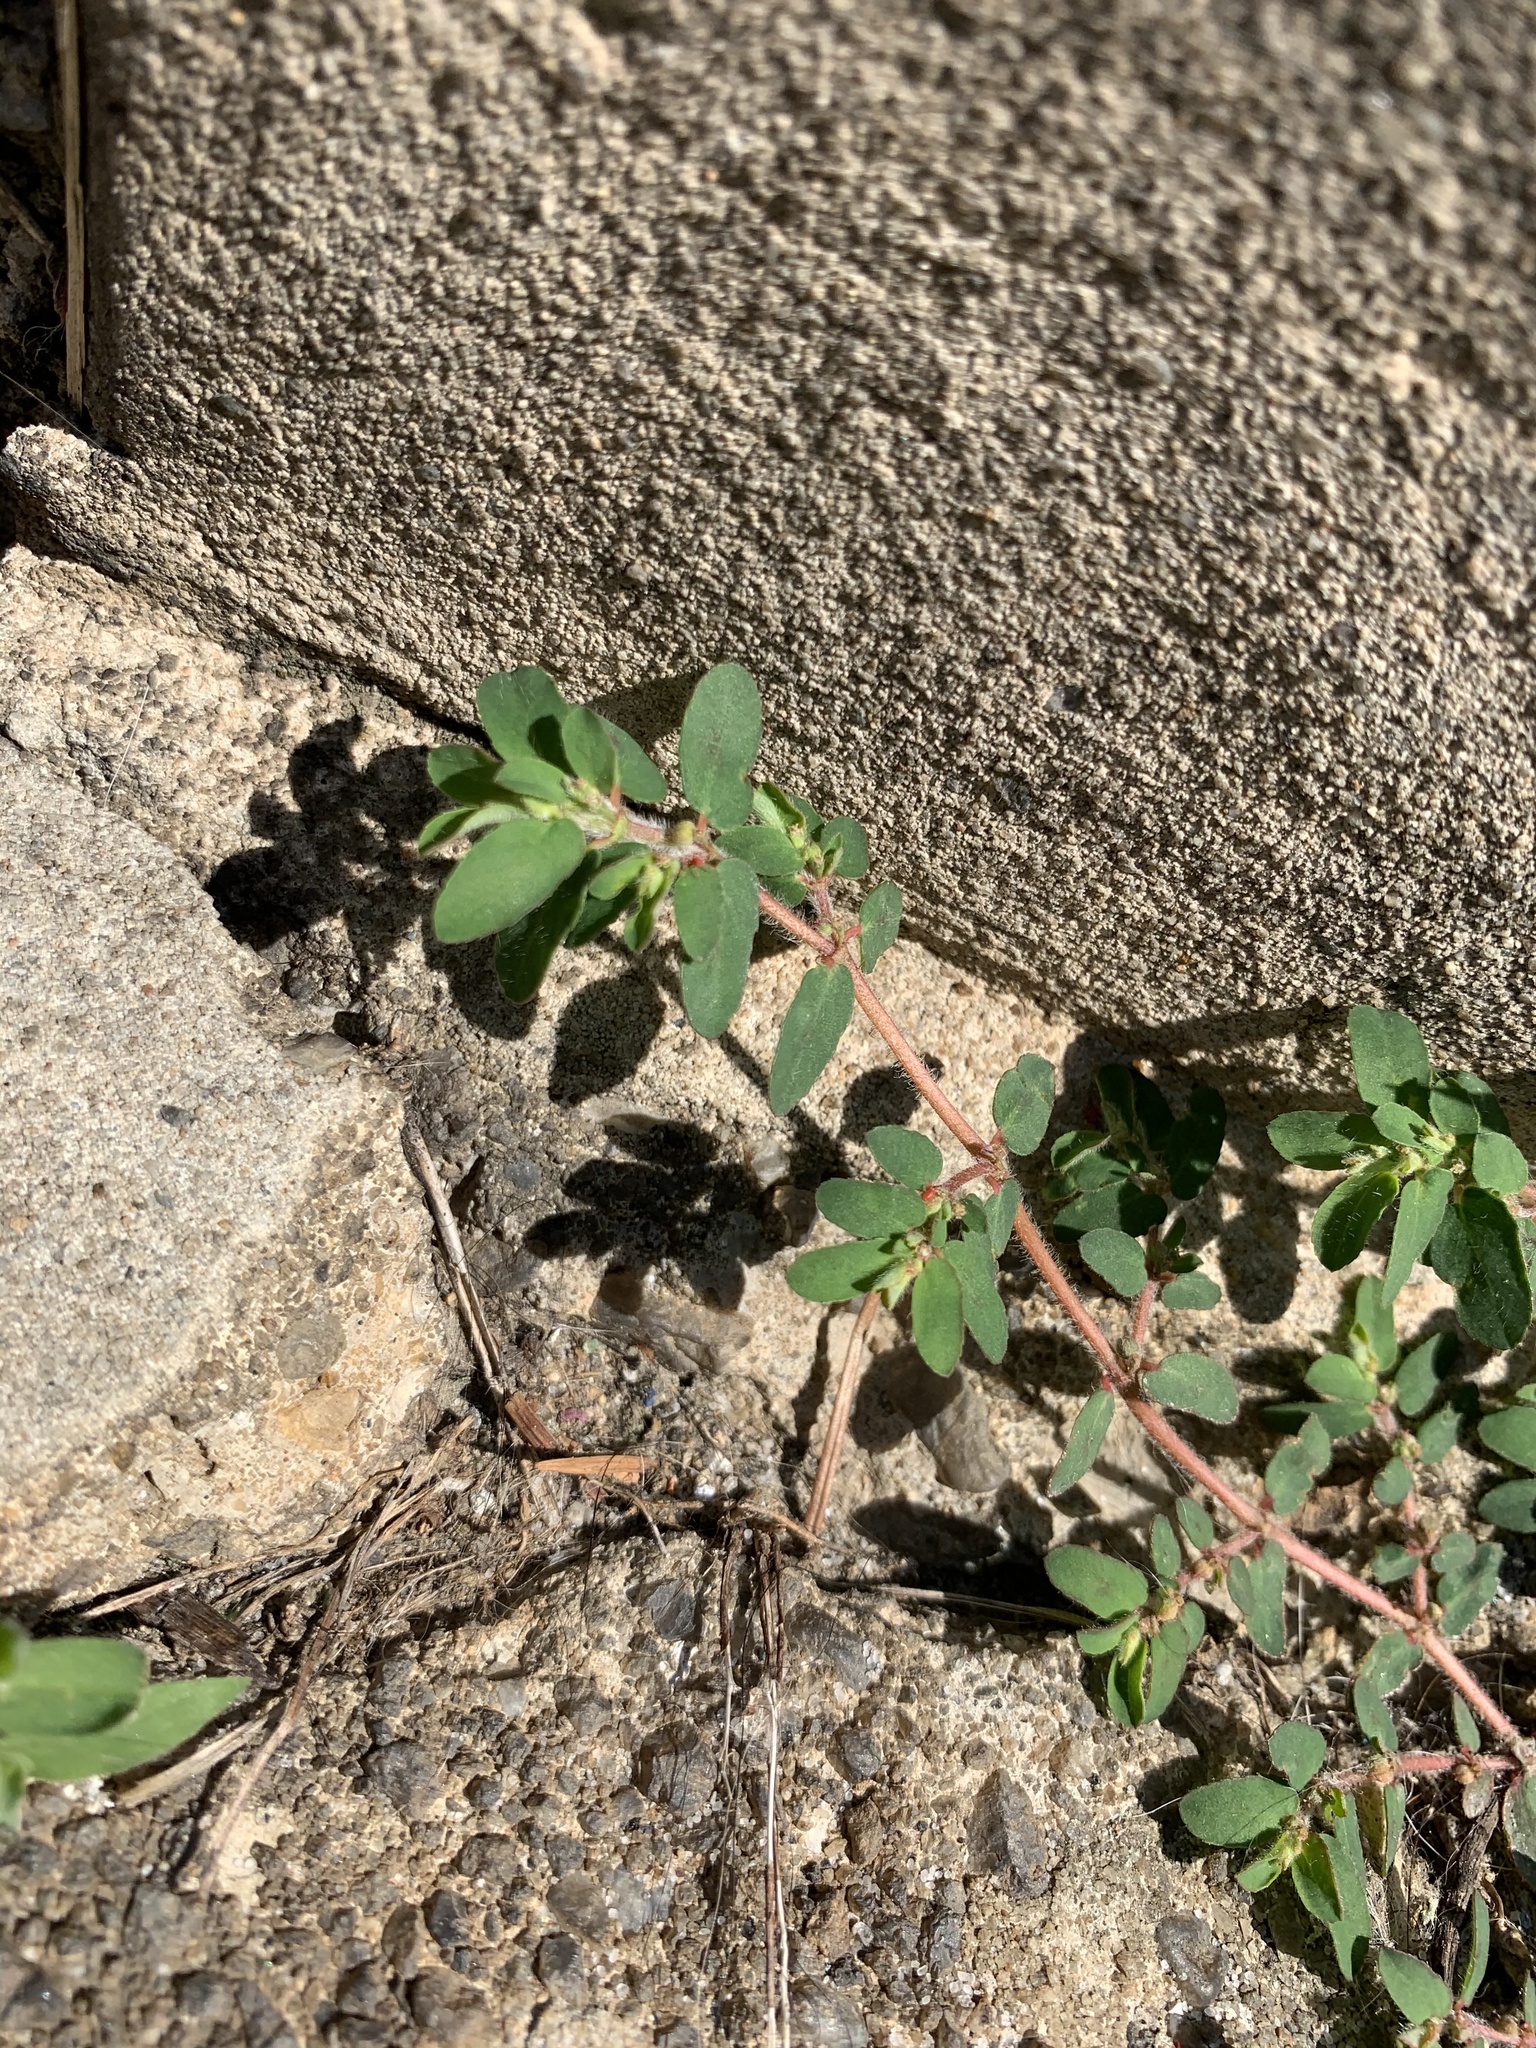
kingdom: Plantae
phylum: Tracheophyta
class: Magnoliopsida
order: Malpighiales
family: Euphorbiaceae
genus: Euphorbia
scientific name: Euphorbia maculata
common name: Spotted spurge
